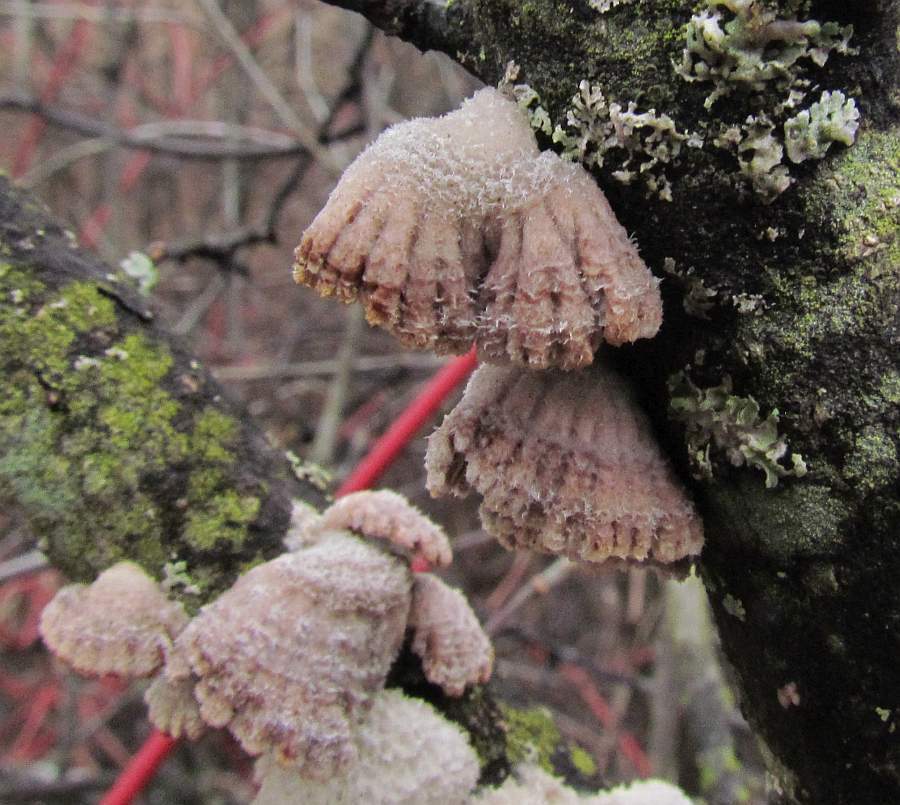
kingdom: Fungi
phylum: Basidiomycota
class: Agaricomycetes
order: Agaricales
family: Schizophyllaceae
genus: Schizophyllum
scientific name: Schizophyllum commune
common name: Common porecrust
